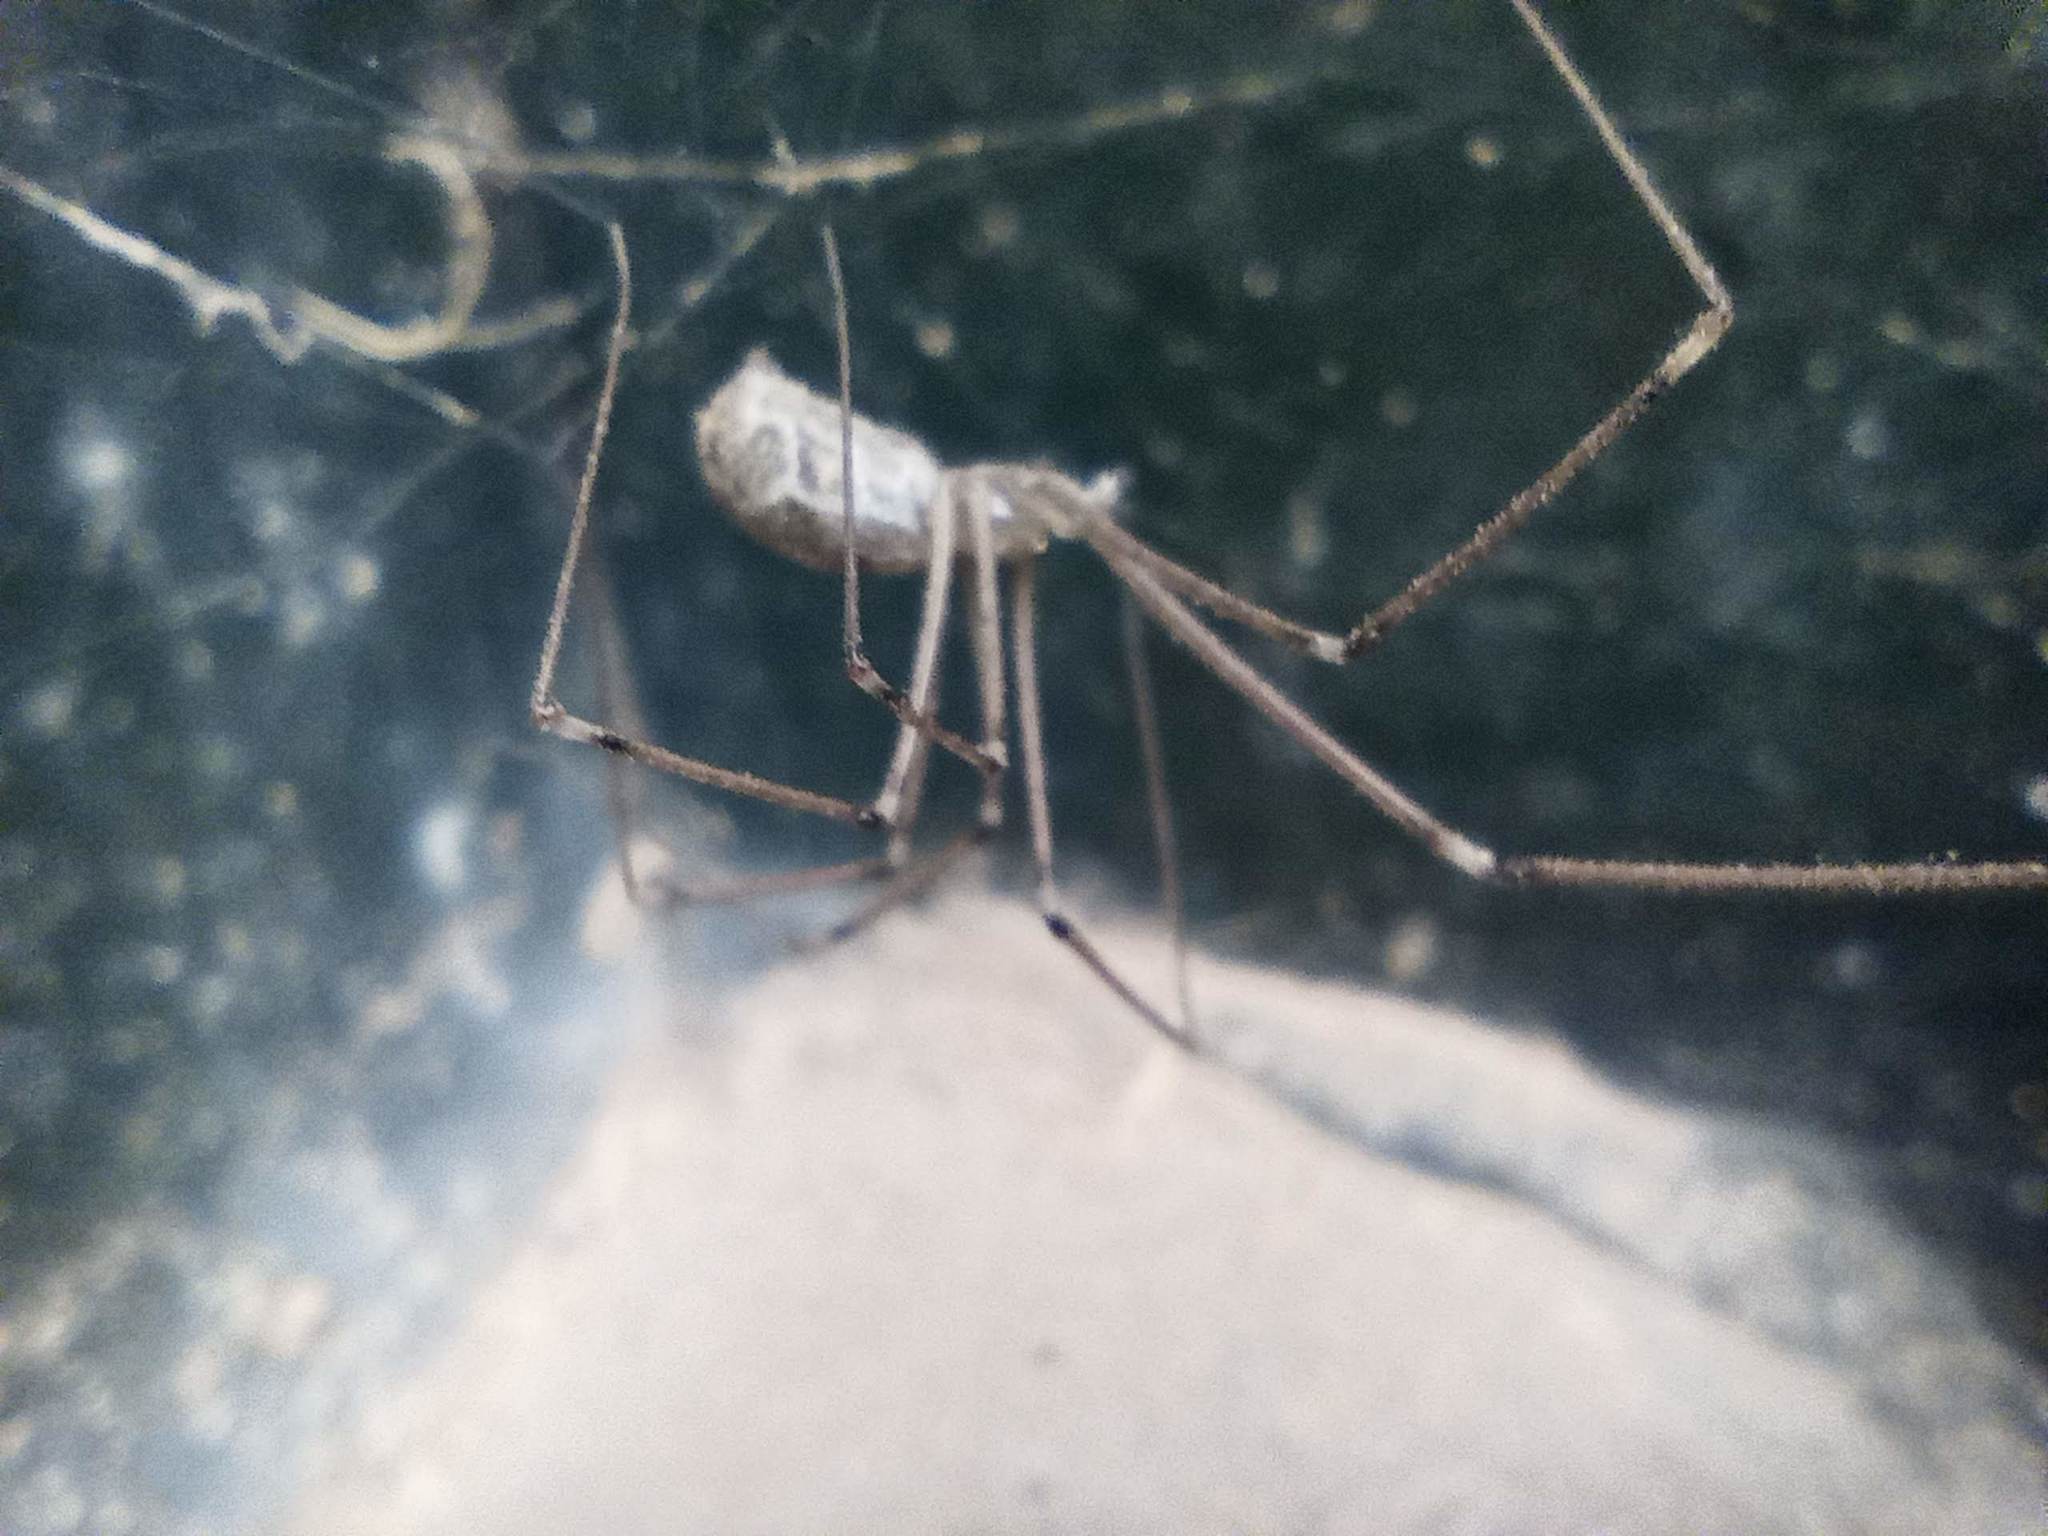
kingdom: Animalia
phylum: Arthropoda
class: Arachnida
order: Araneae
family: Pholcidae
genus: Holocnemus
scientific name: Holocnemus pluchei
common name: Marbled cellar spider
